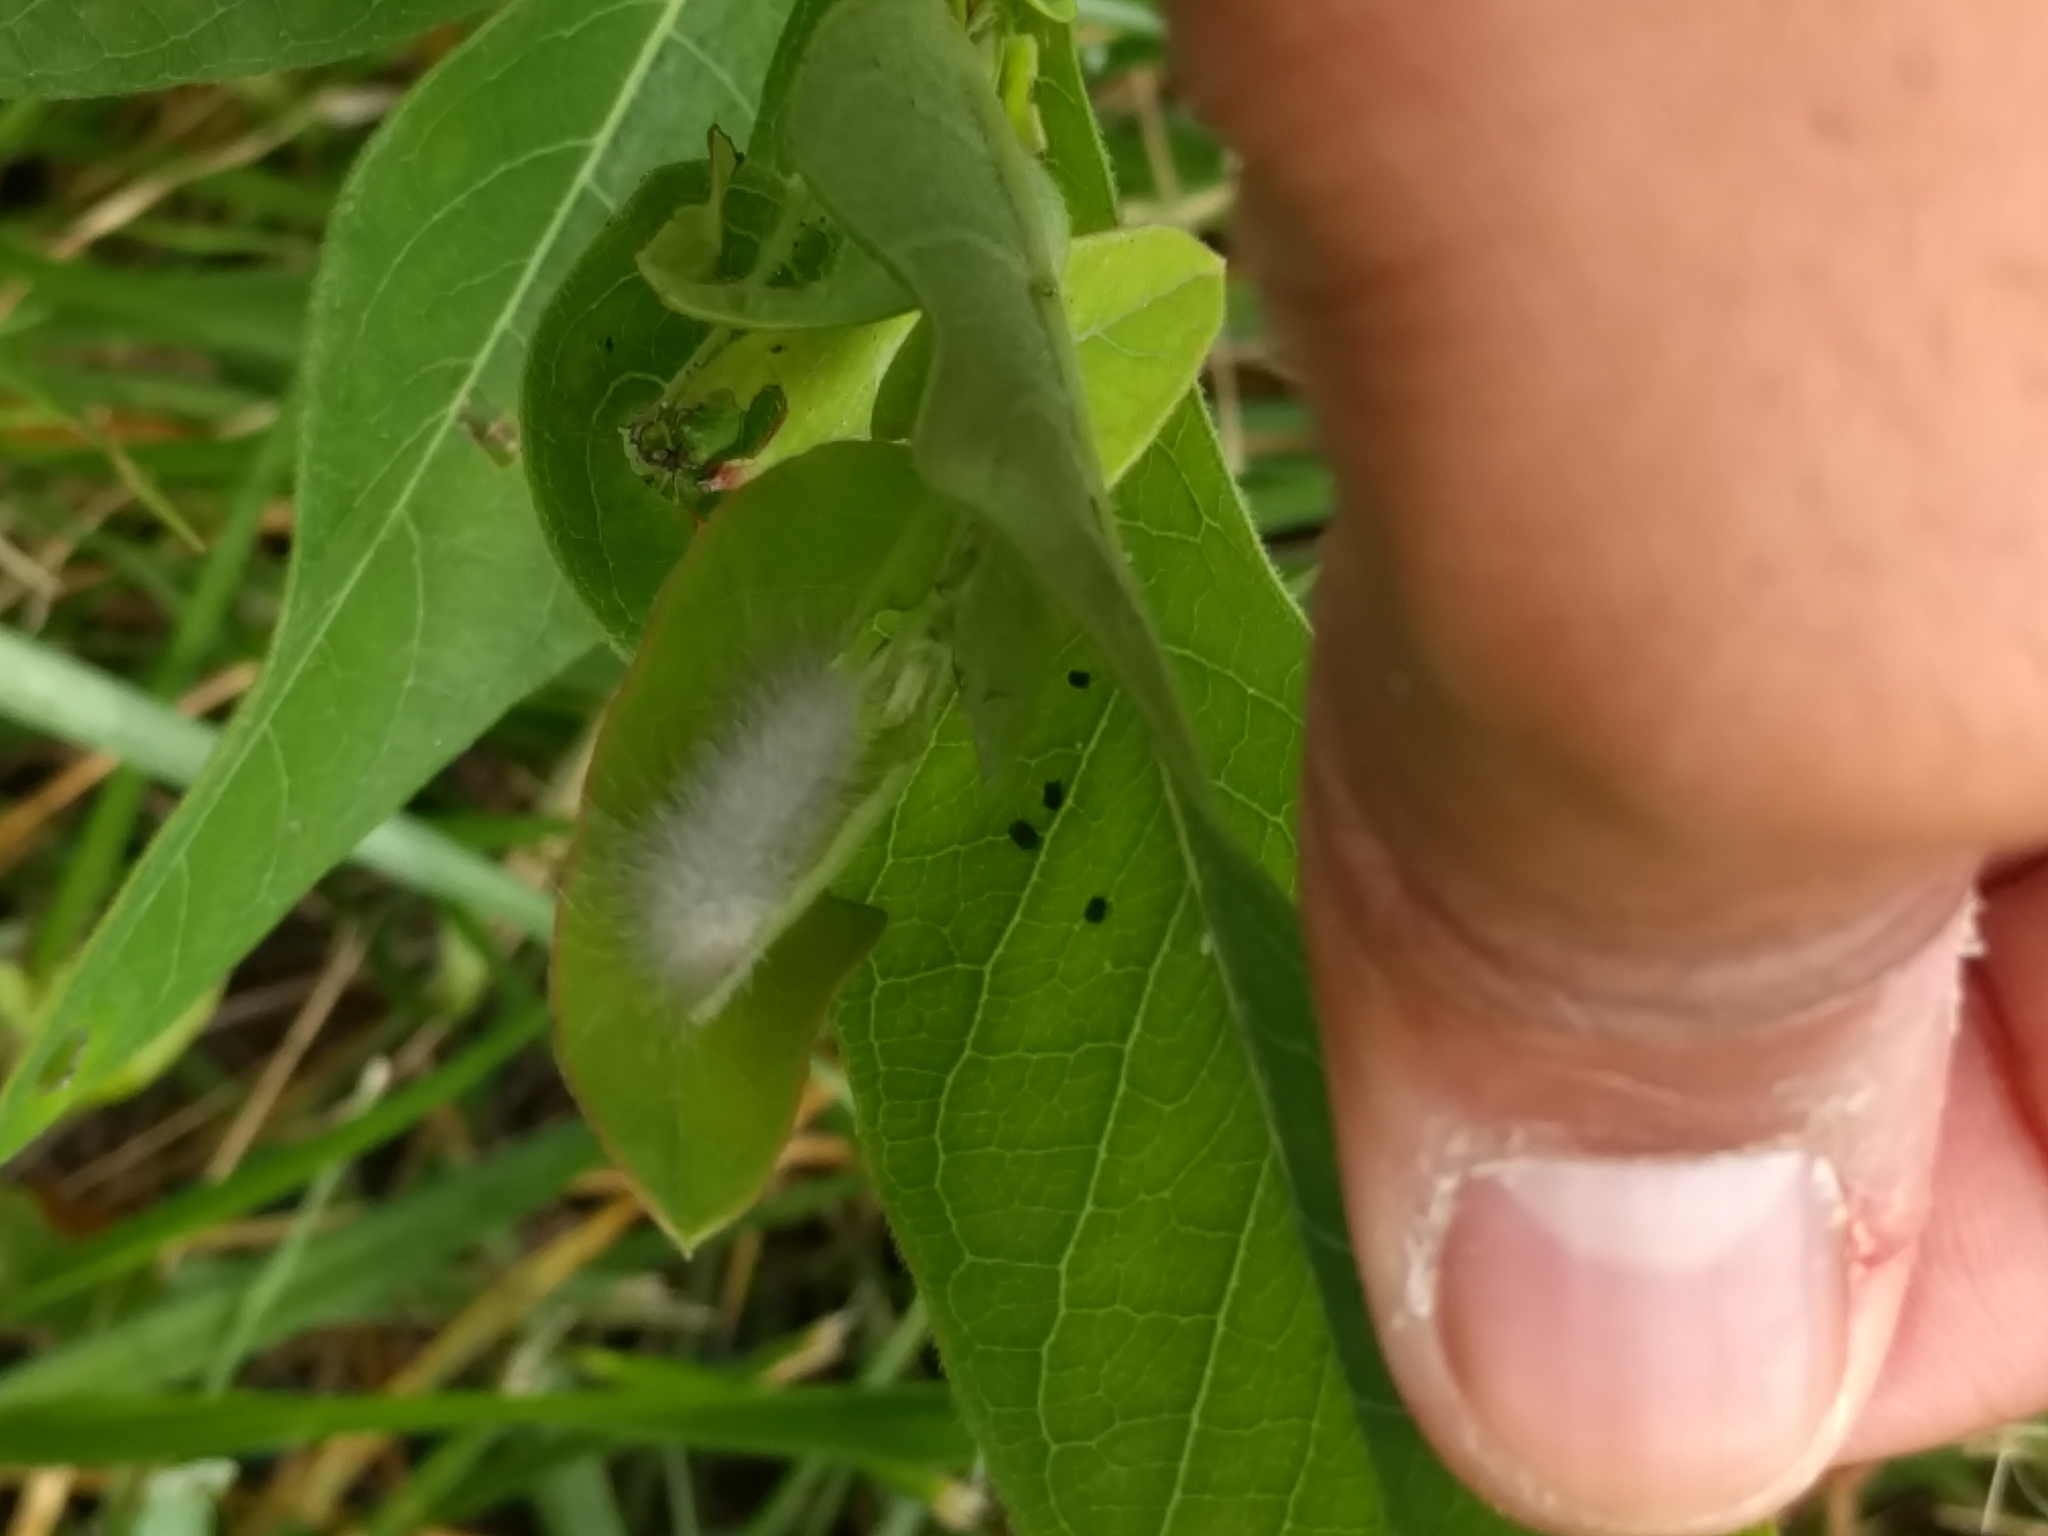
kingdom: Animalia
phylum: Arthropoda
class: Insecta
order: Lepidoptera
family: Erebidae
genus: Cycnia
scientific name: Cycnia tenera
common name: Delicate cycnia moth
